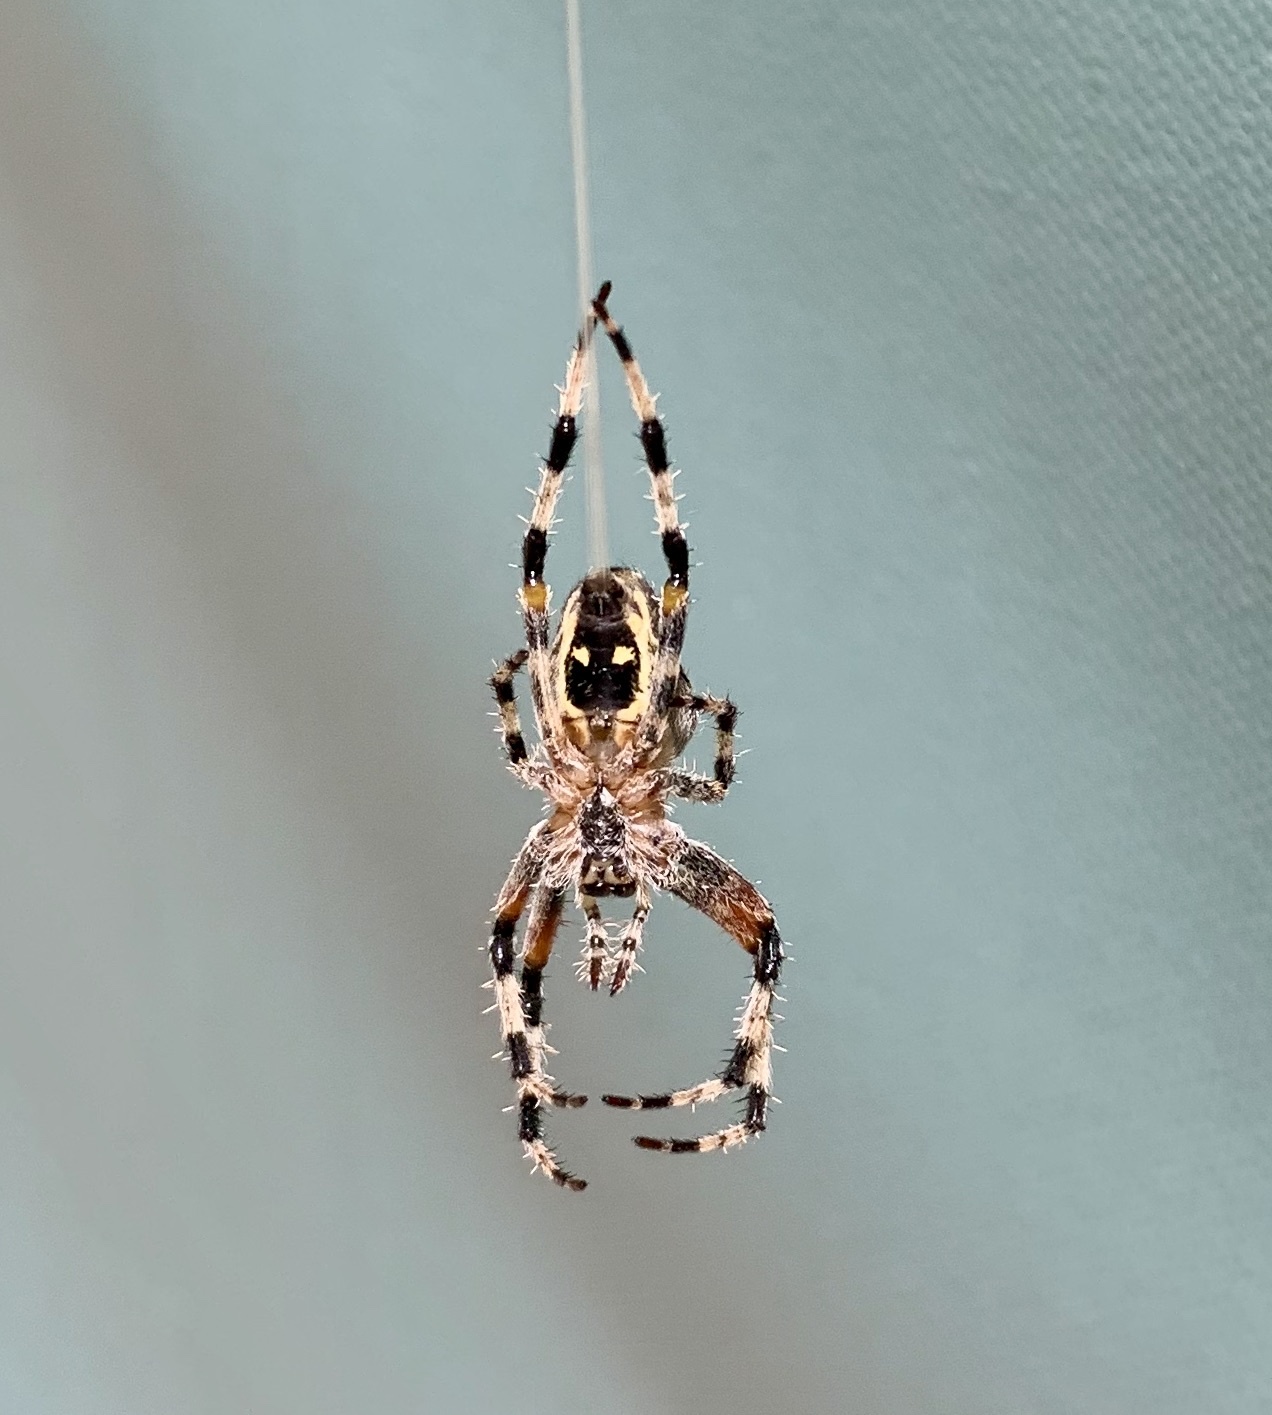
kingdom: Animalia
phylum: Arthropoda
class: Arachnida
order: Araneae
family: Araneidae
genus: Araneus
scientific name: Araneus nordmanni
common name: Nordmann's orbweaver
